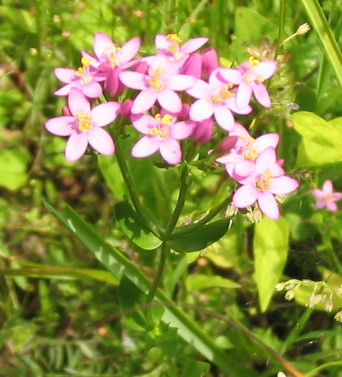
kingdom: Plantae
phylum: Tracheophyta
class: Magnoliopsida
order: Gentianales
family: Gentianaceae
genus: Centaurium
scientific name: Centaurium erythraea
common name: Common centaury
